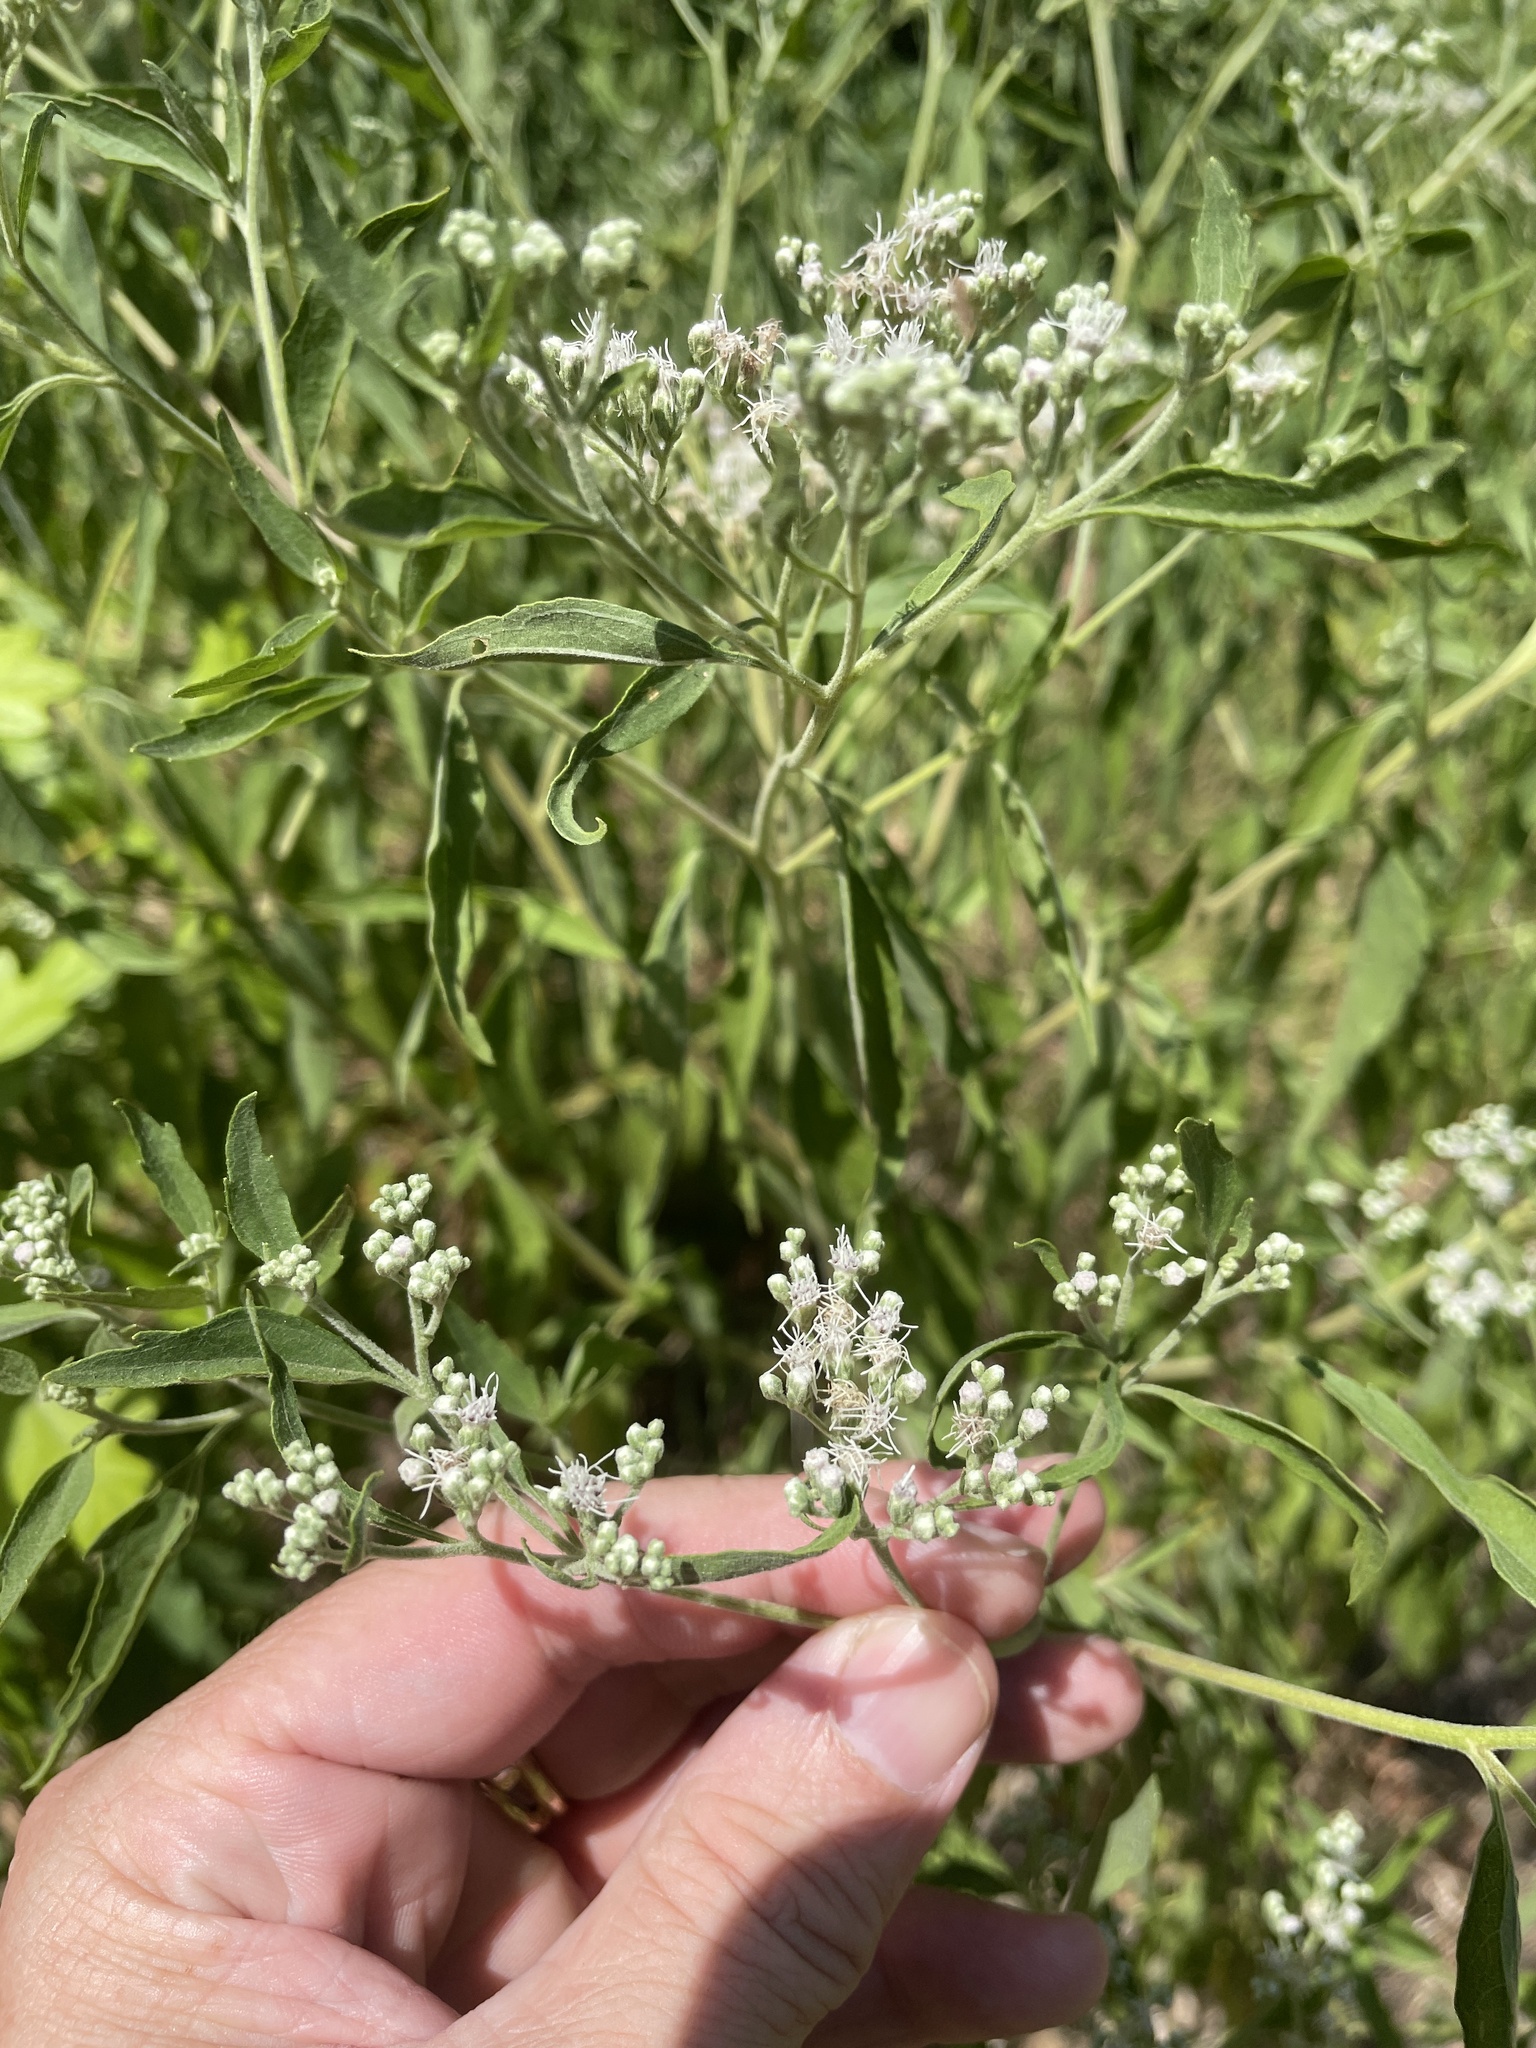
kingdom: Plantae
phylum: Tracheophyta
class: Magnoliopsida
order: Asterales
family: Asteraceae
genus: Eupatorium
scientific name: Eupatorium serotinum
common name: Late boneset
